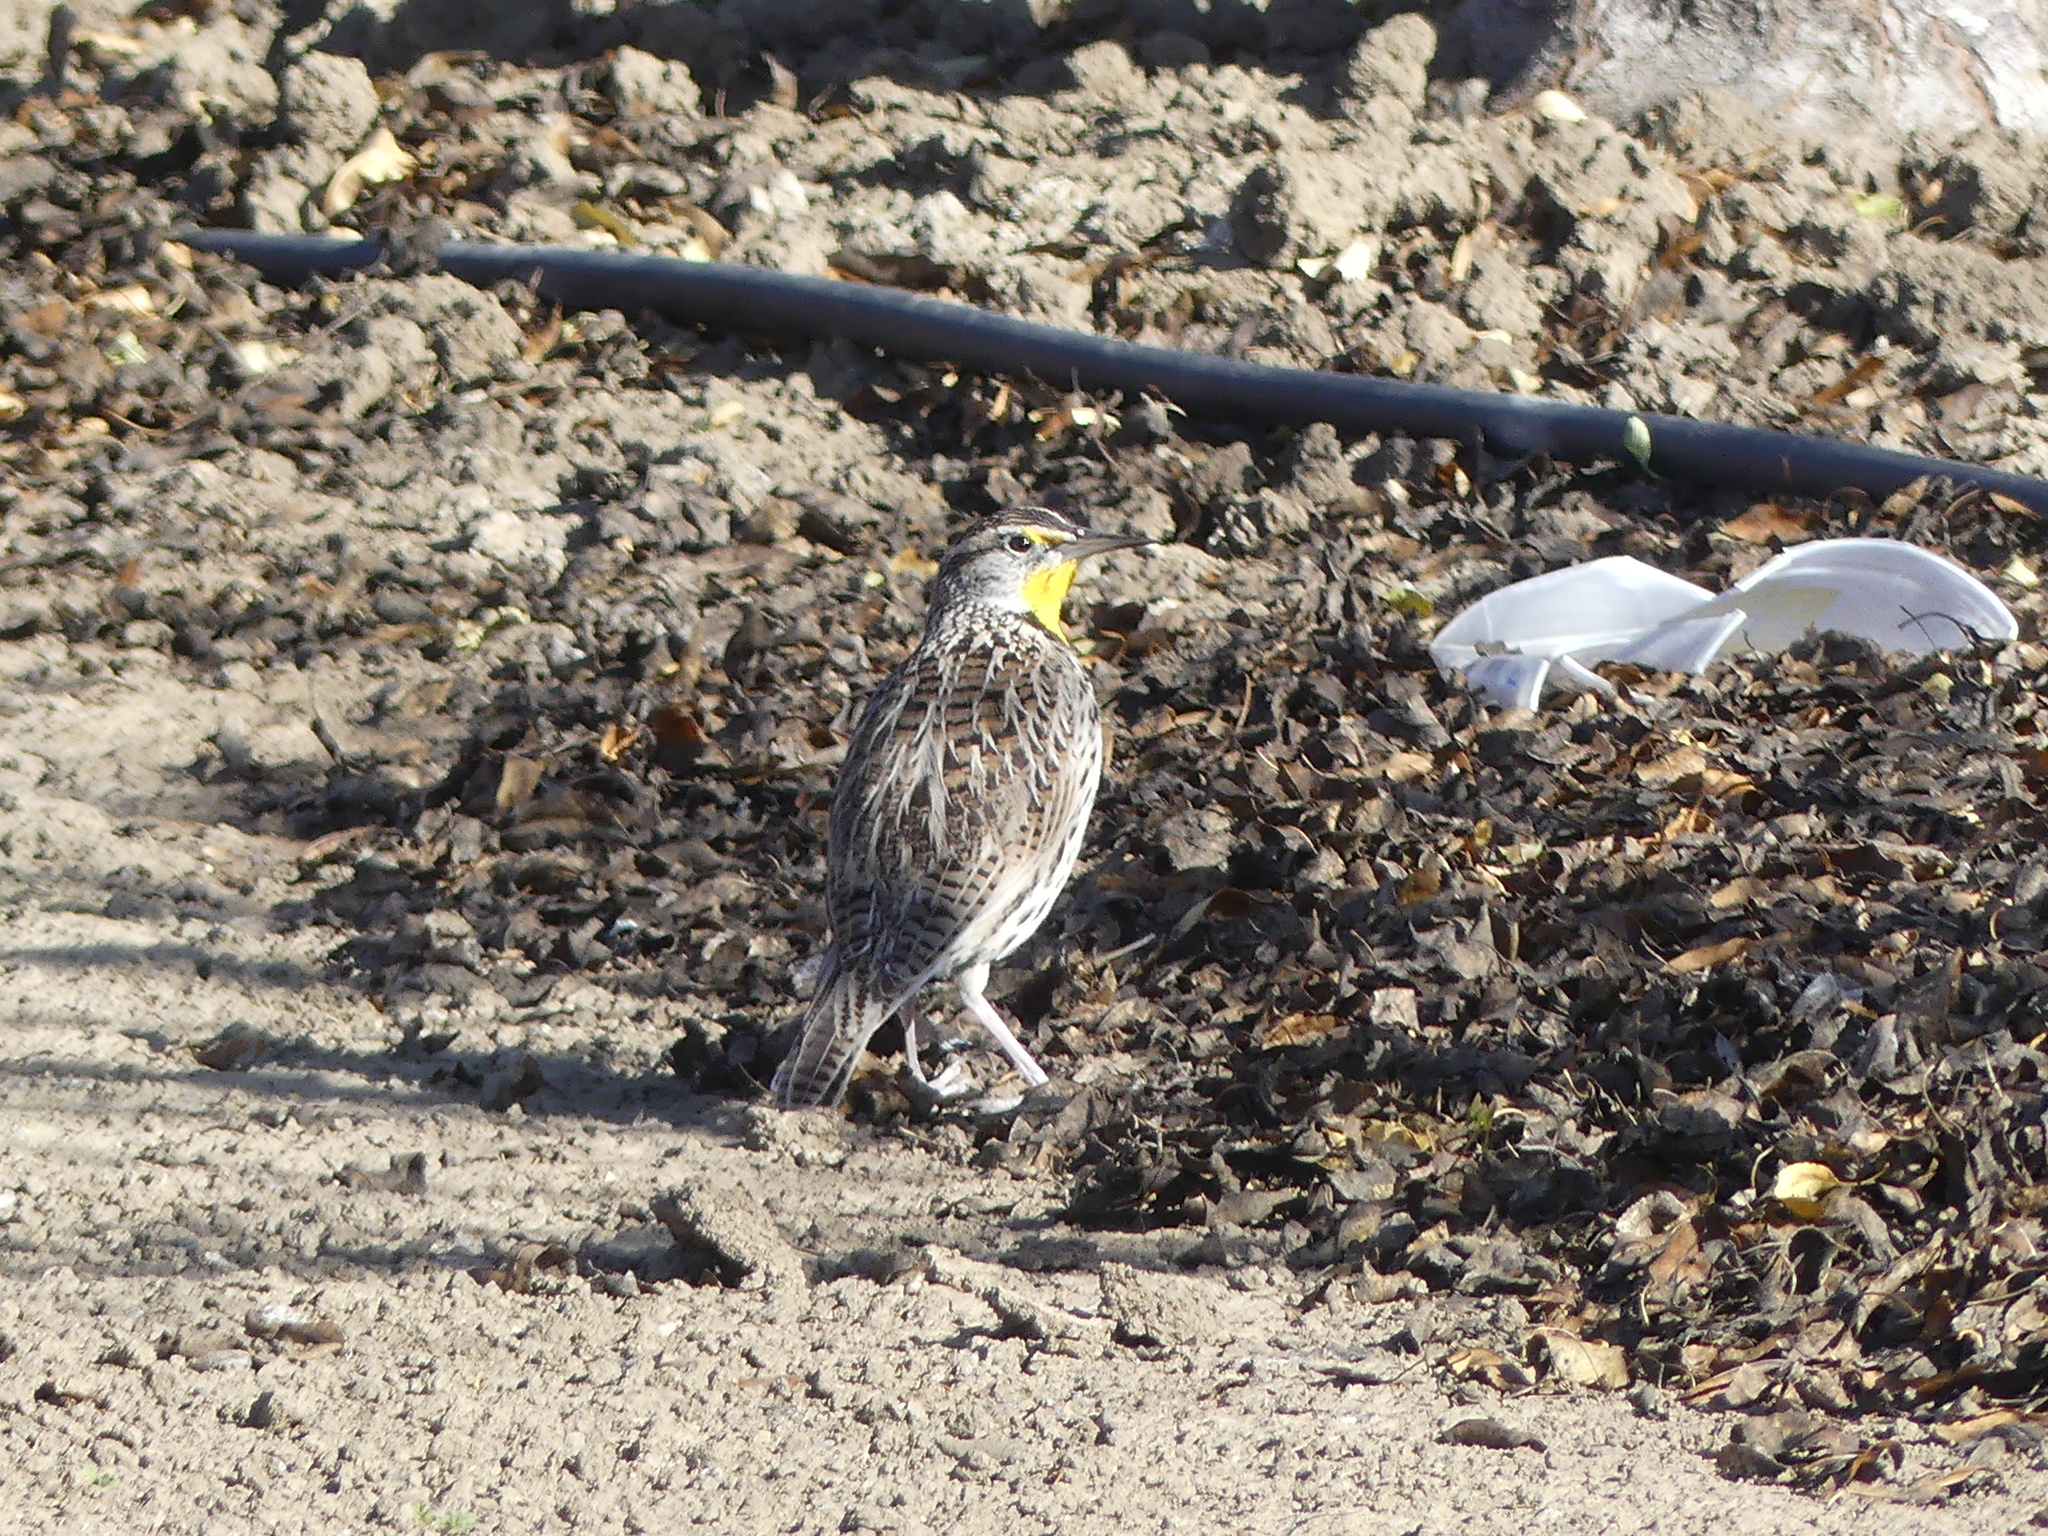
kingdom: Animalia
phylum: Chordata
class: Aves
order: Passeriformes
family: Icteridae
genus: Sturnella
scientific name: Sturnella neglecta
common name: Western meadowlark
